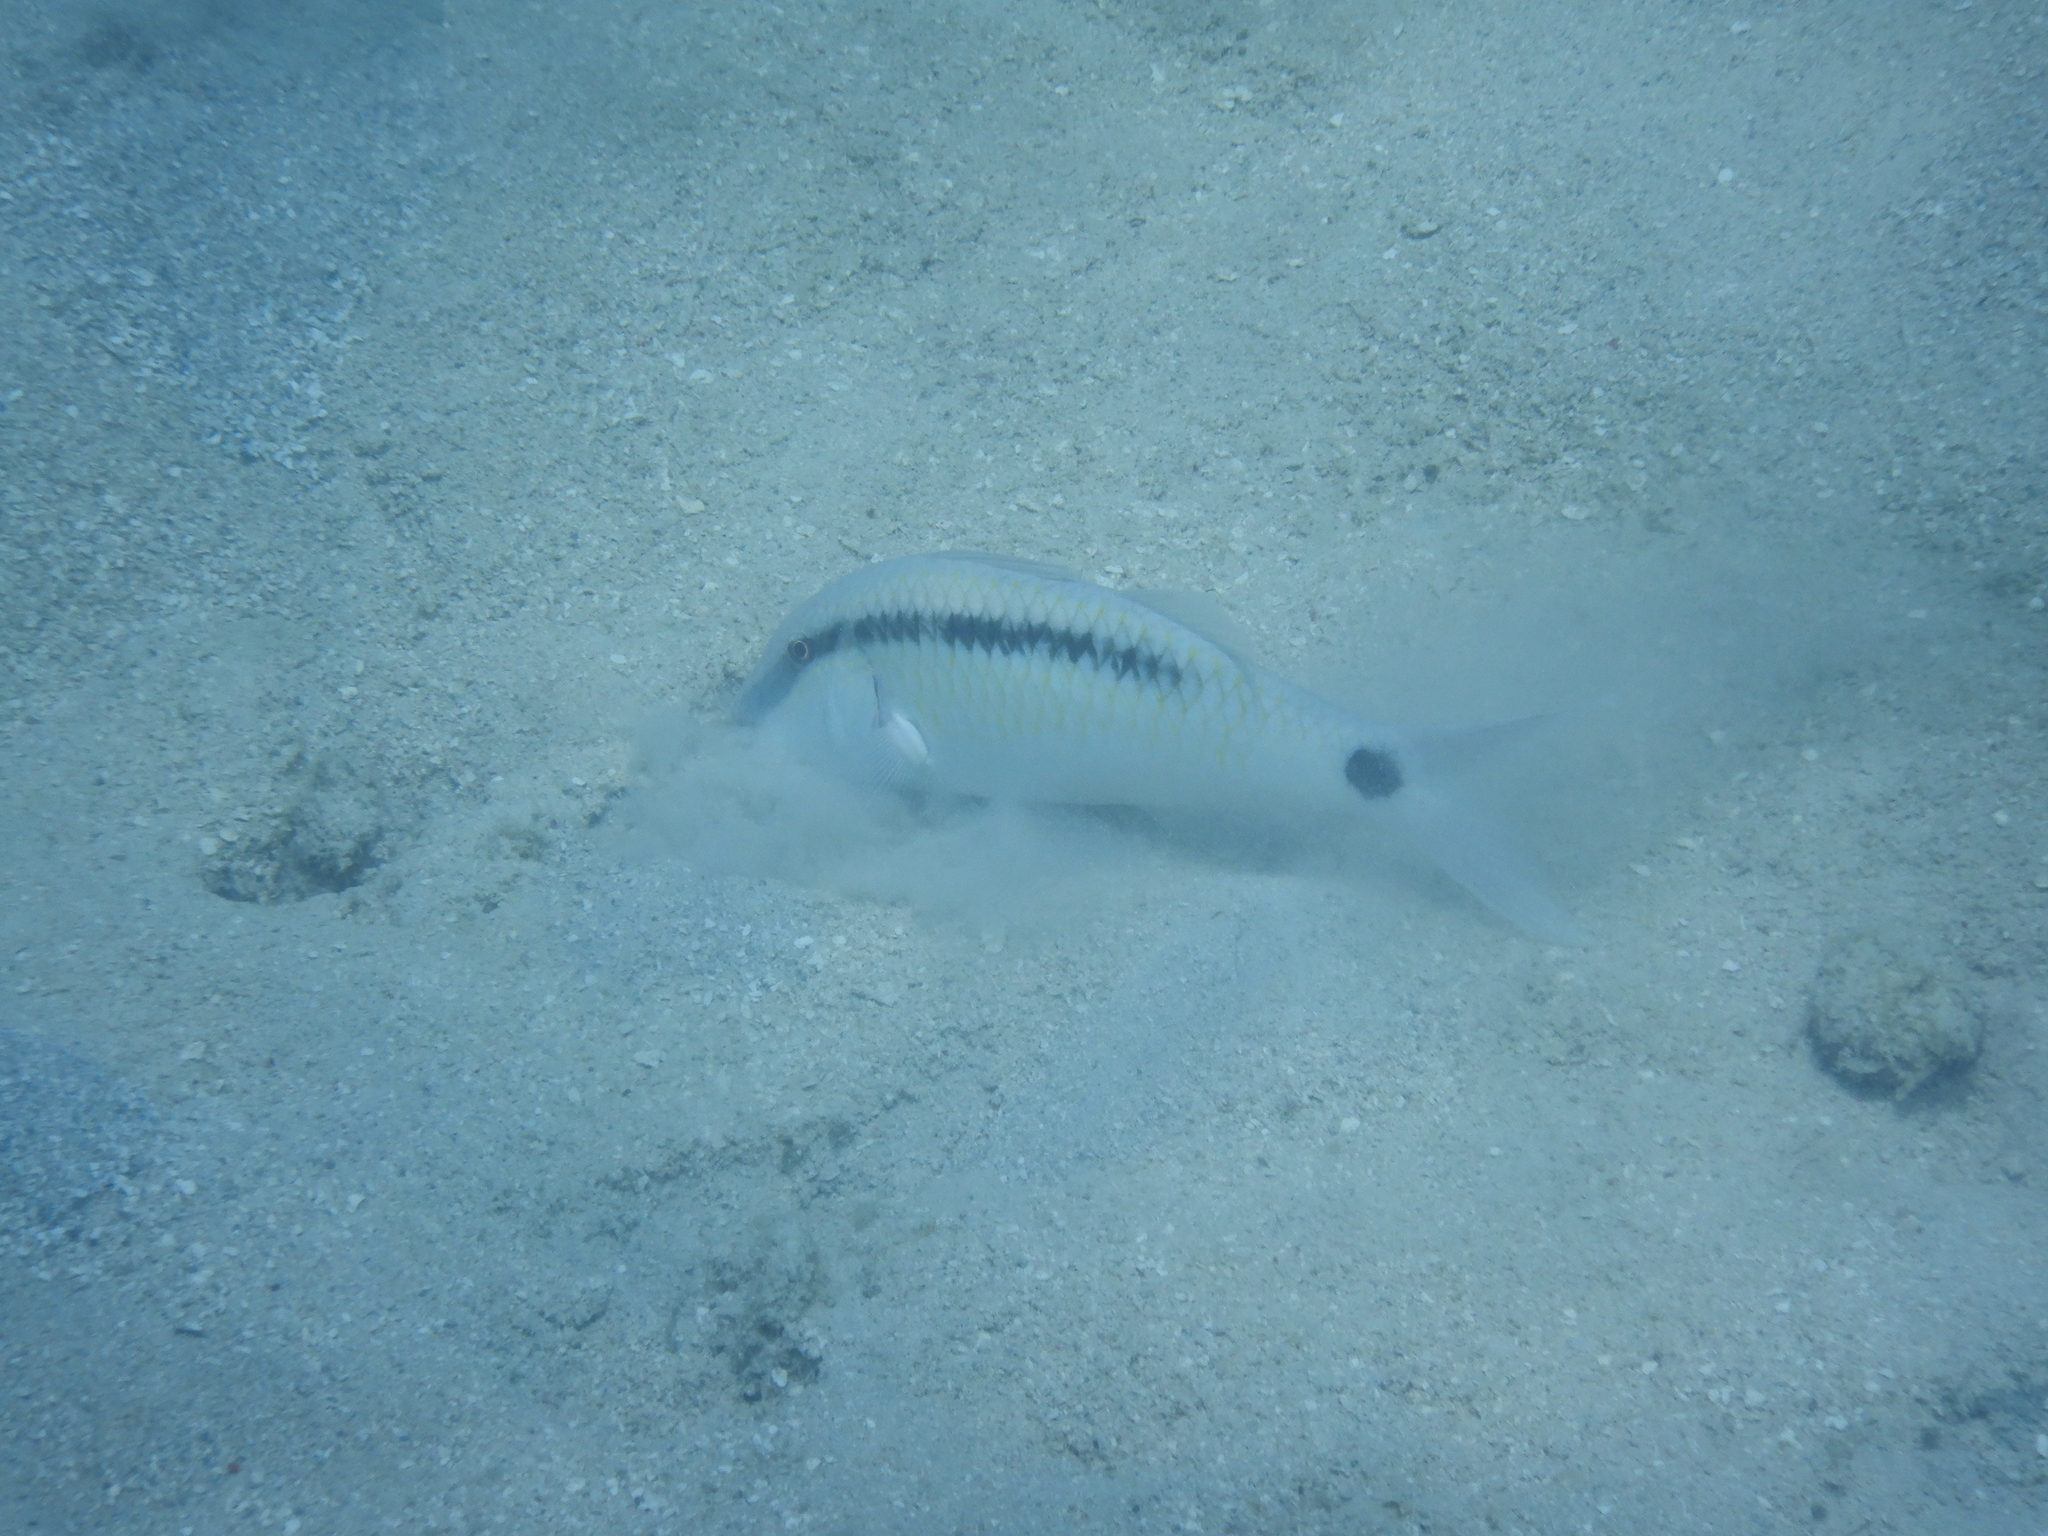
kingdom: Animalia
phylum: Chordata
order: Perciformes
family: Mullidae
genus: Parupeneus
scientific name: Parupeneus barberinus
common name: Dash-and-dot goatfish
